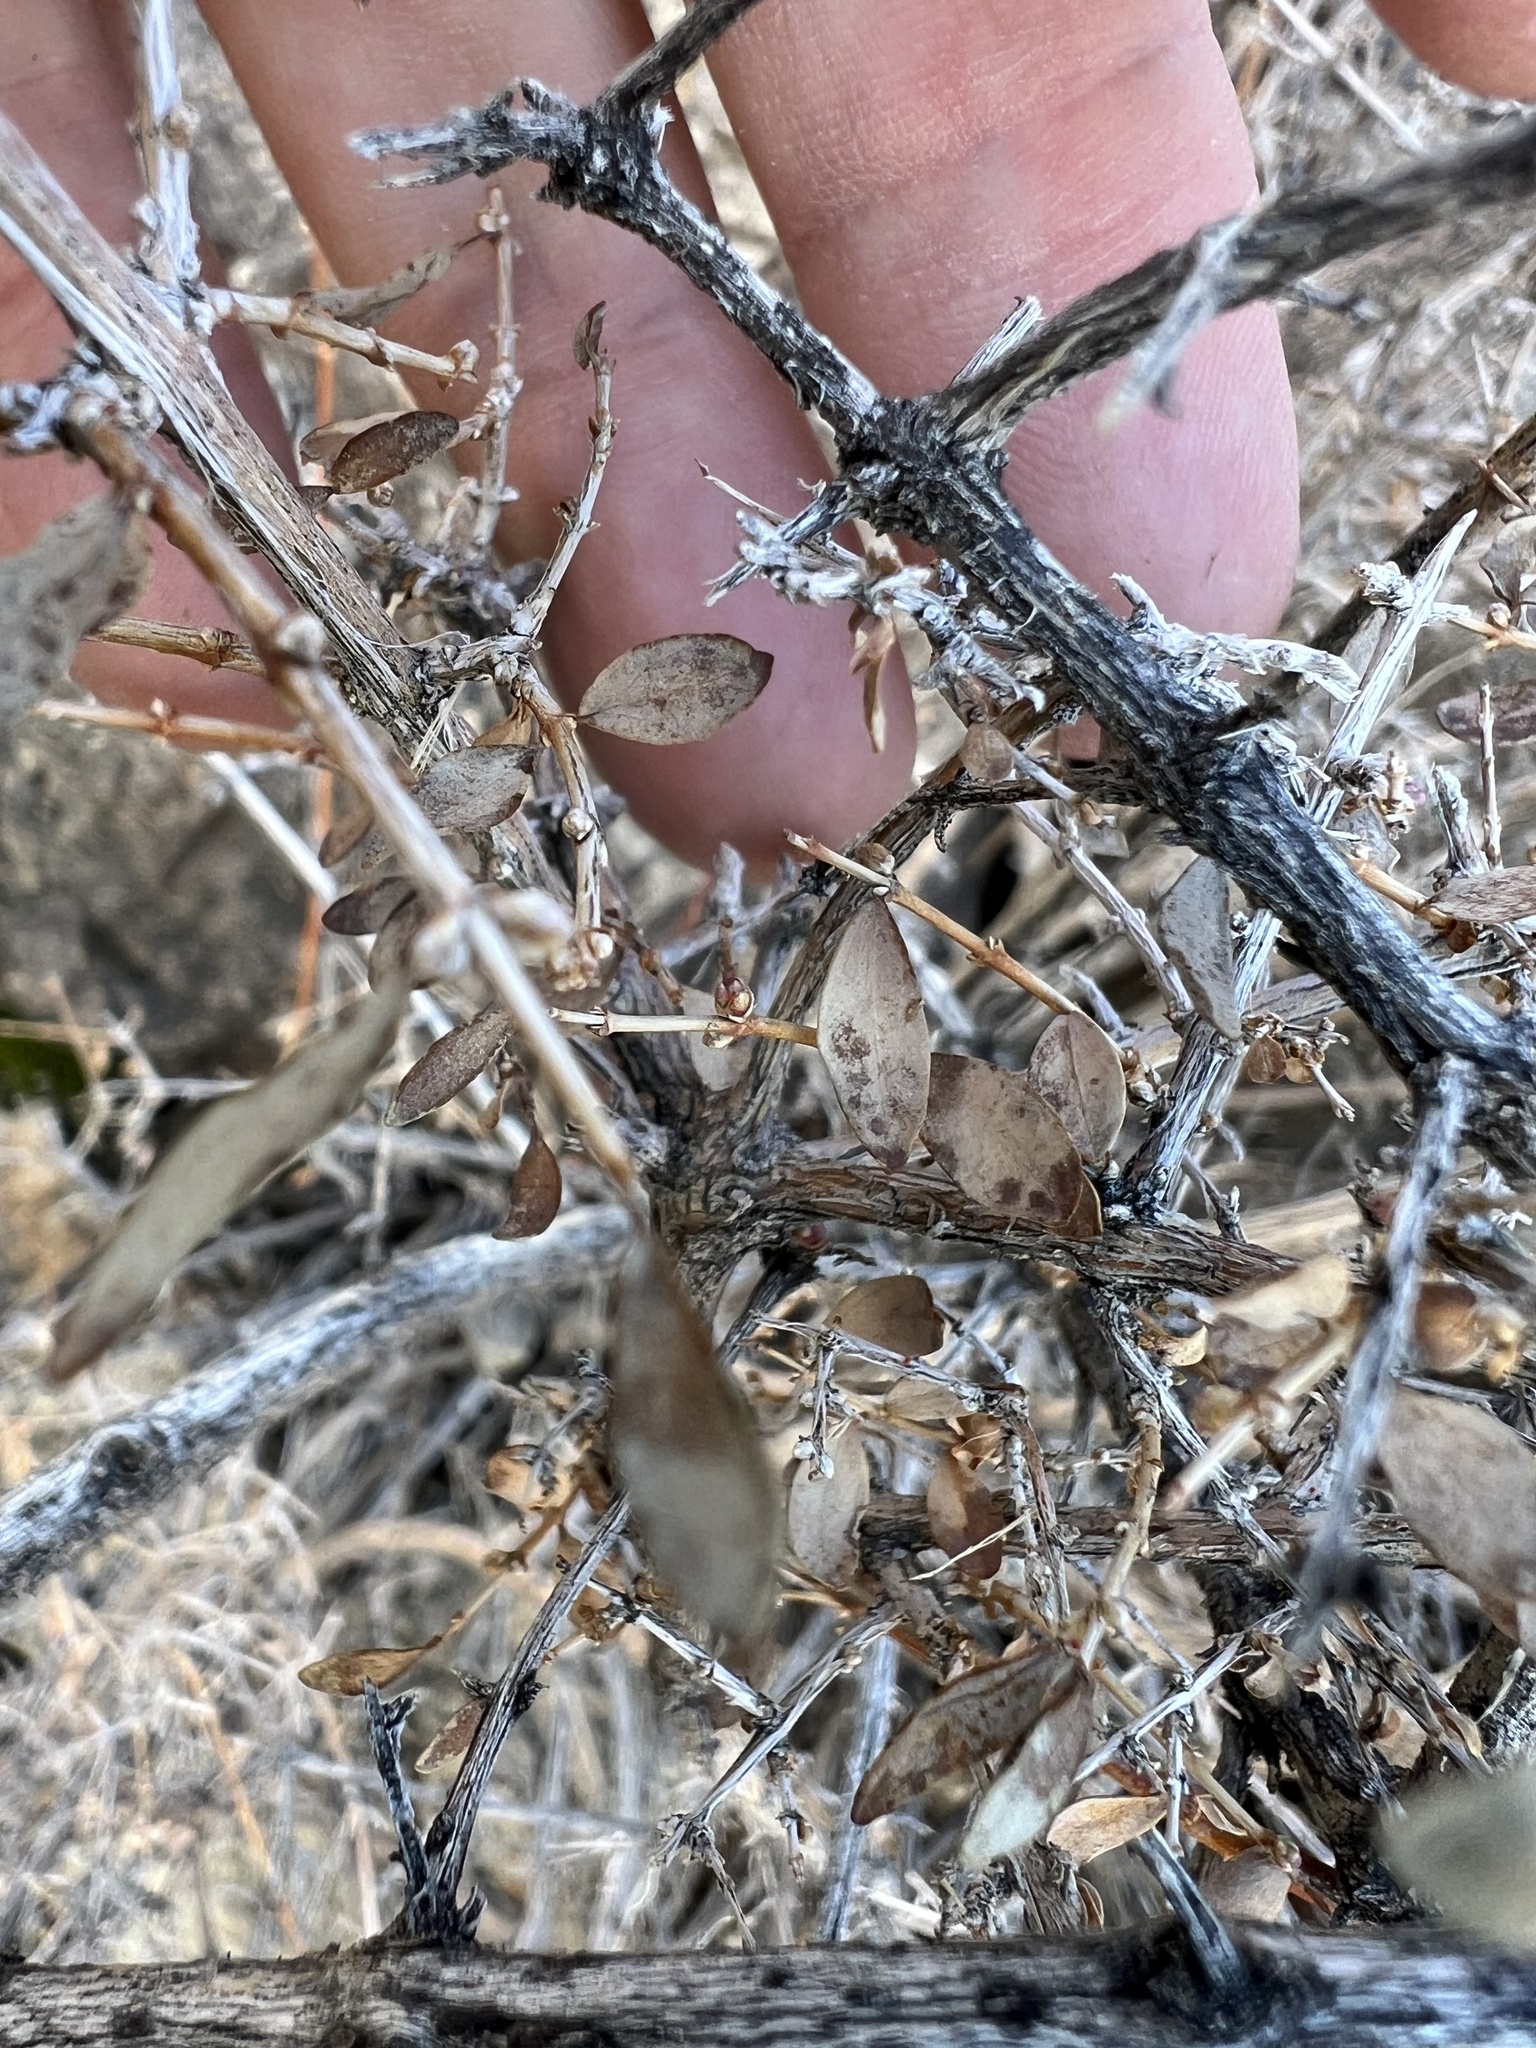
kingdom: Plantae
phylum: Tracheophyta
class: Magnoliopsida
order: Dipsacales
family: Caprifoliaceae
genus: Symphoricarpos
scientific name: Symphoricarpos longiflorus
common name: Fragrant snowberry
